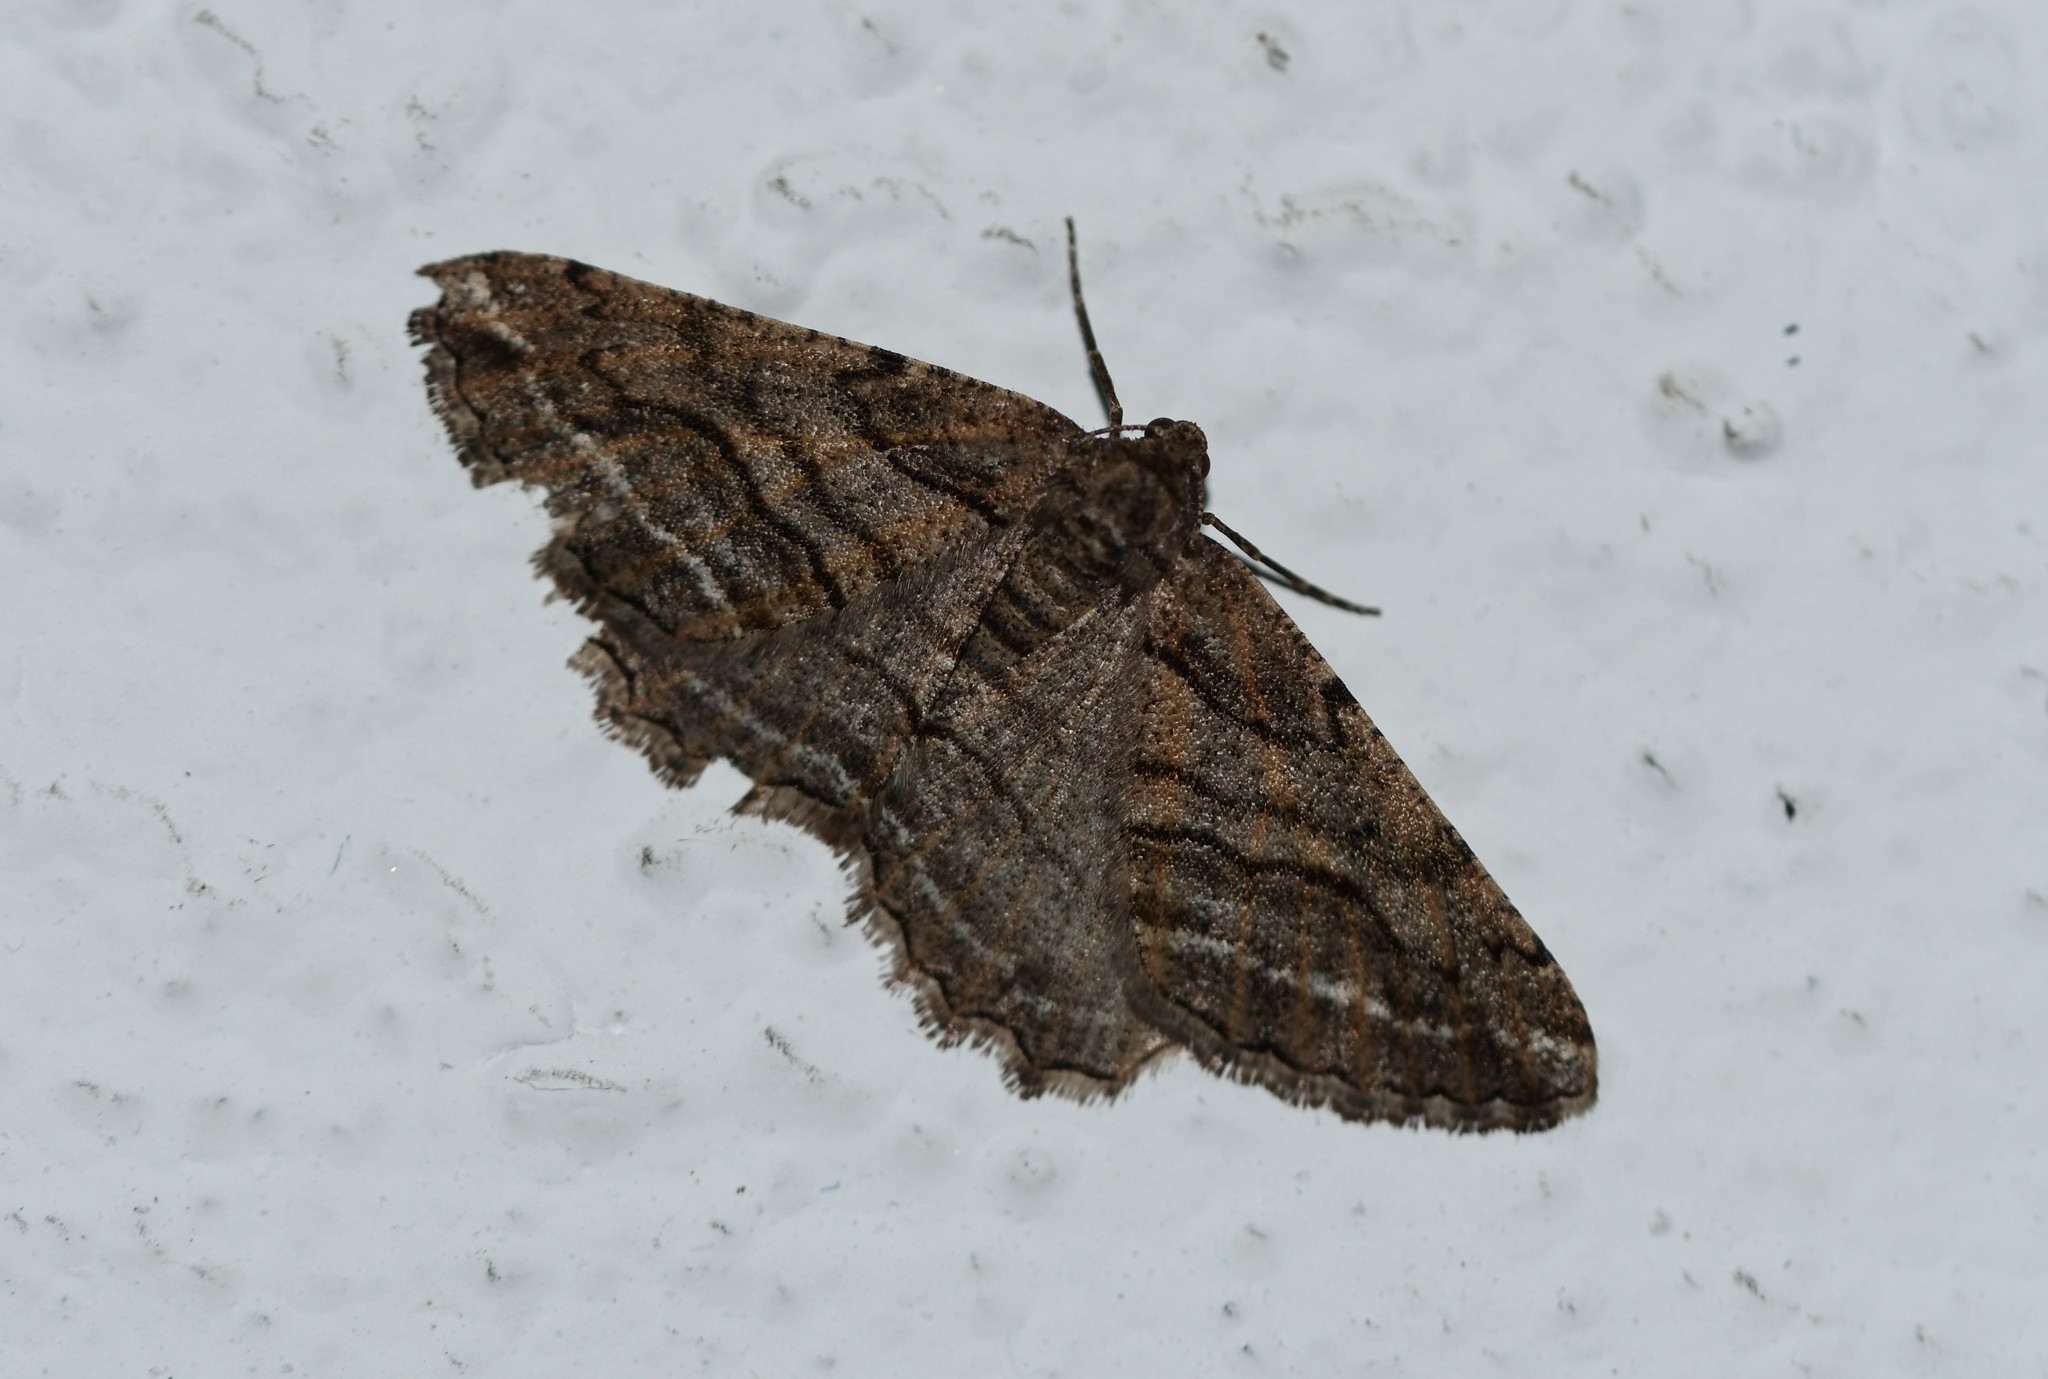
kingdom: Animalia
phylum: Arthropoda
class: Insecta
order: Lepidoptera
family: Geometridae
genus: Calamodes
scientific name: Calamodes occitanaria
